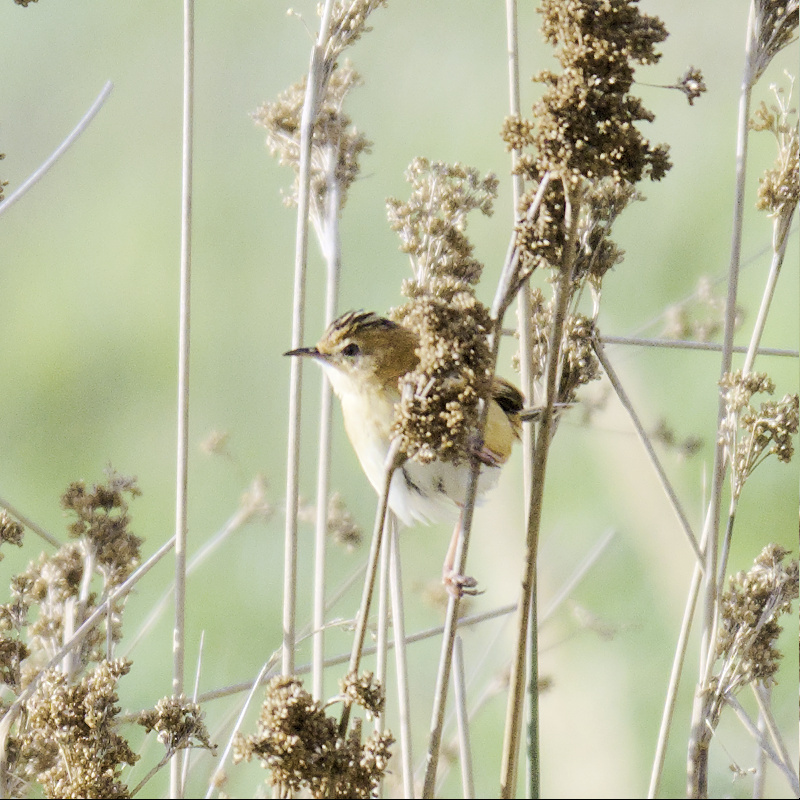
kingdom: Animalia
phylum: Chordata
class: Aves
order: Passeriformes
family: Cisticolidae
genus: Cisticola
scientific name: Cisticola exilis
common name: Golden-headed cisticola
